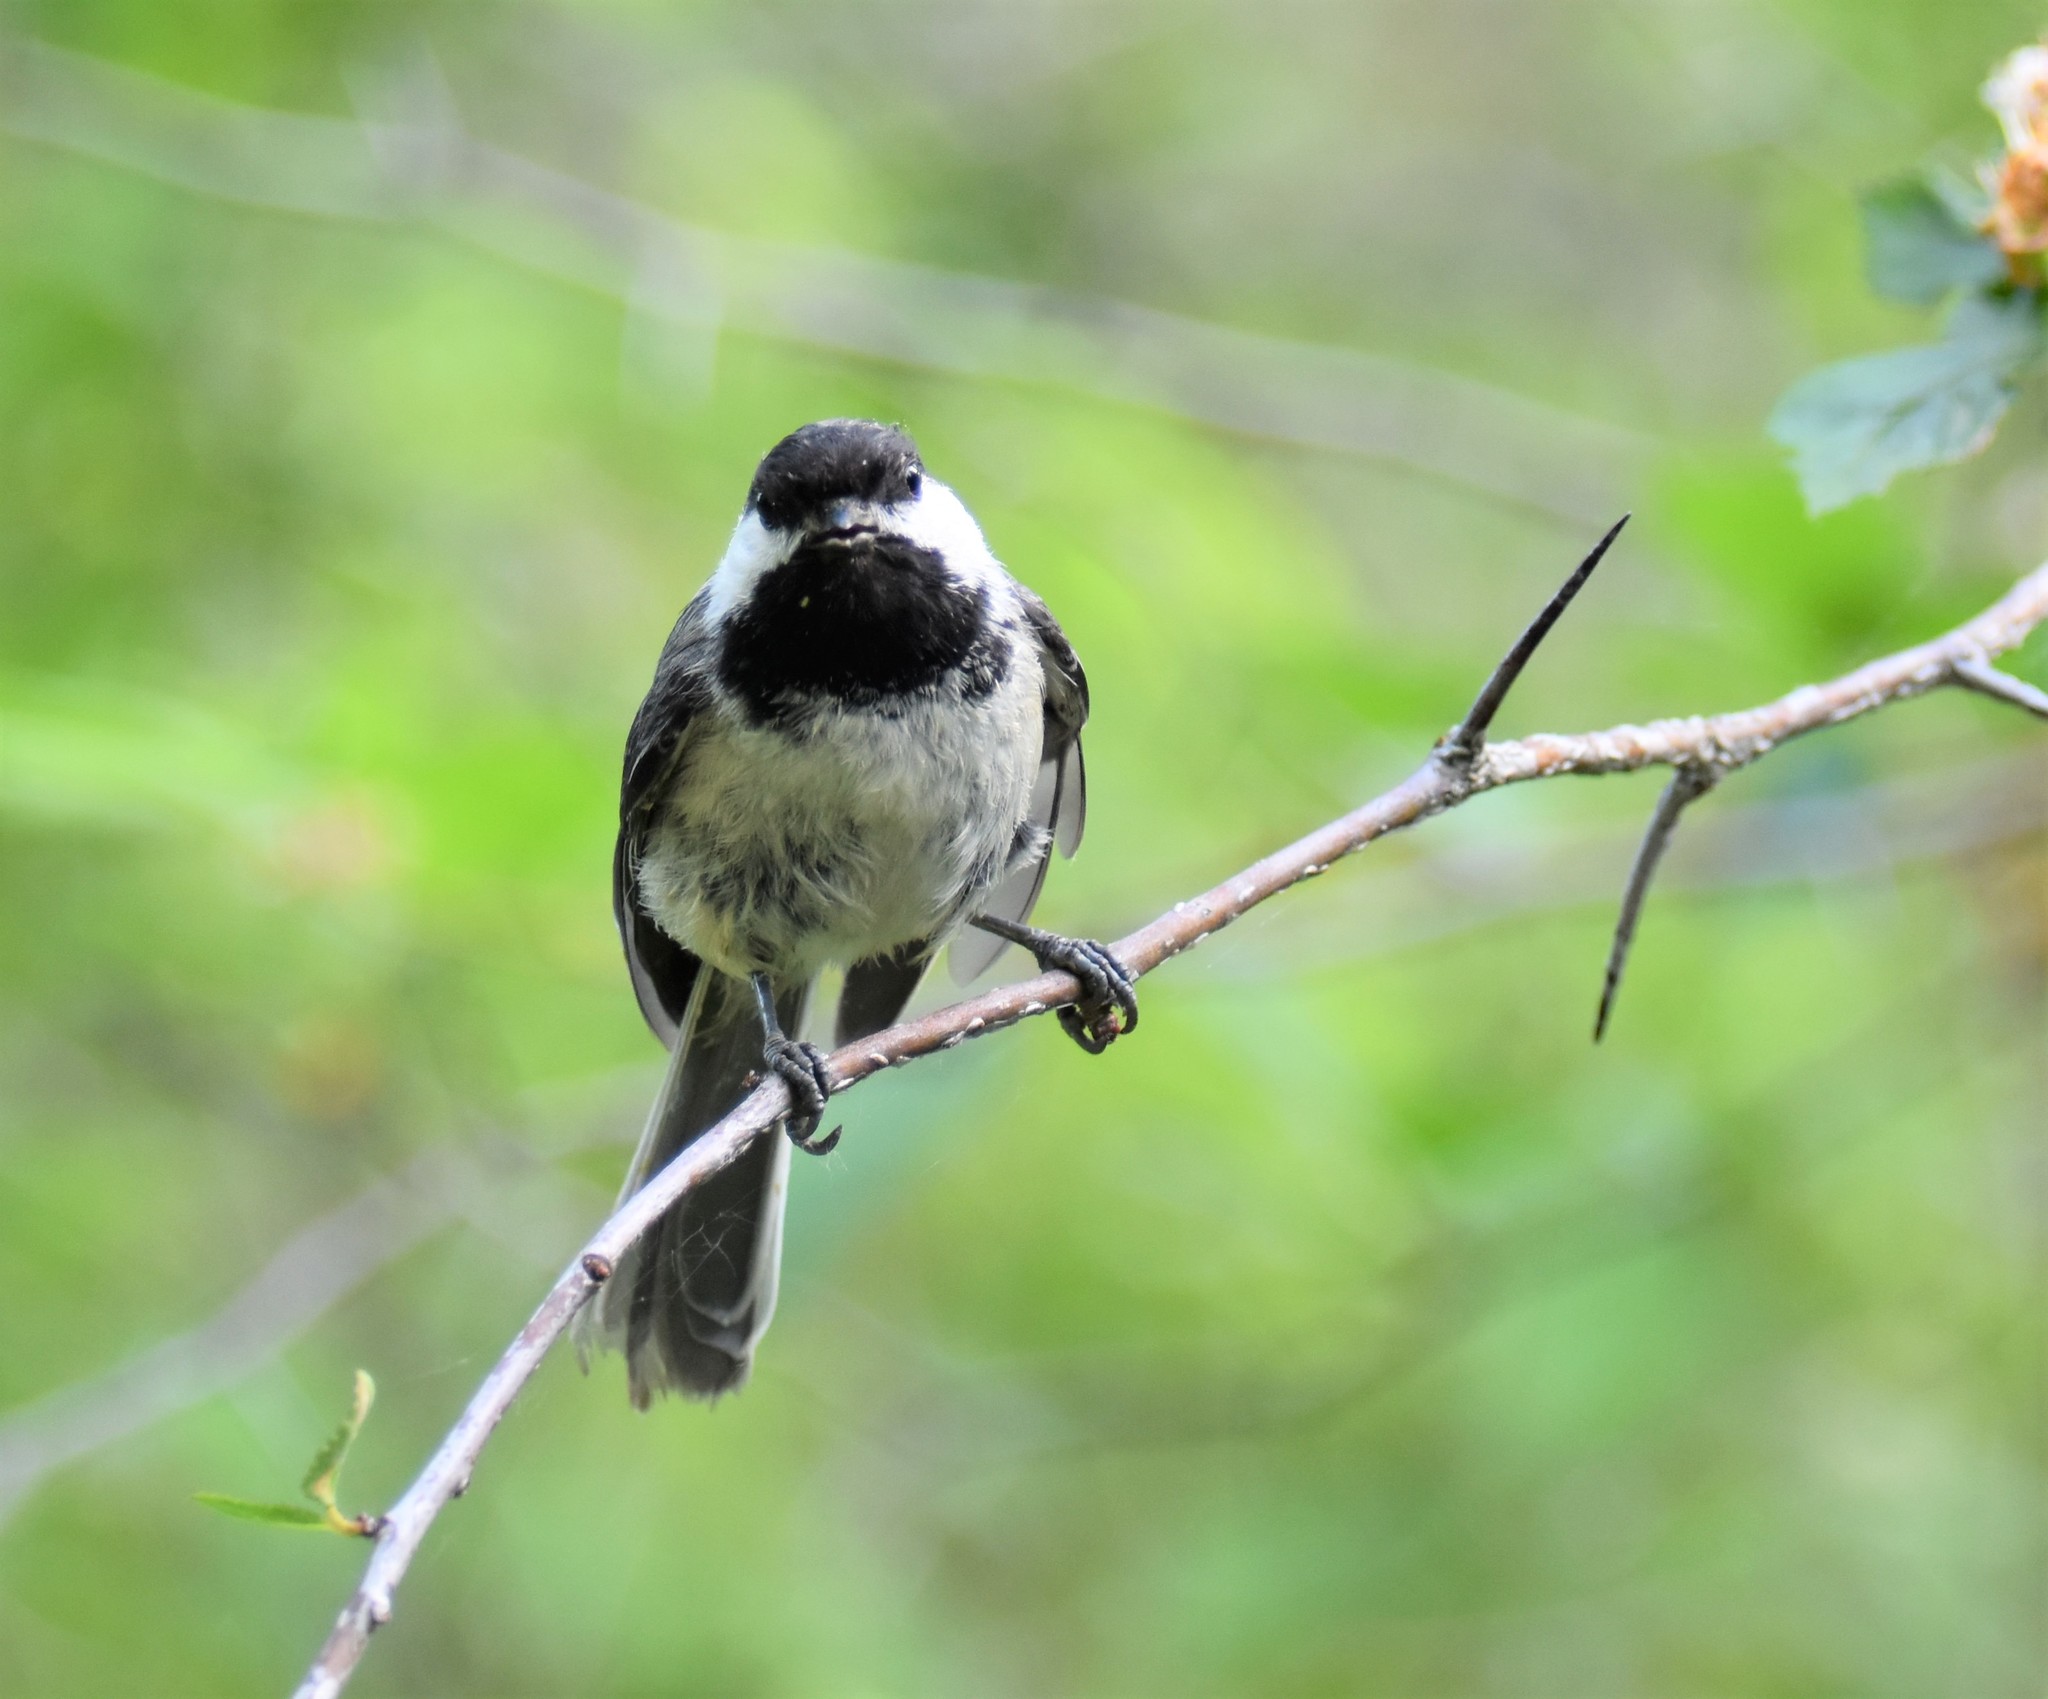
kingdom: Animalia
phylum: Chordata
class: Aves
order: Passeriformes
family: Paridae
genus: Poecile
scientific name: Poecile atricapillus
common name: Black-capped chickadee
